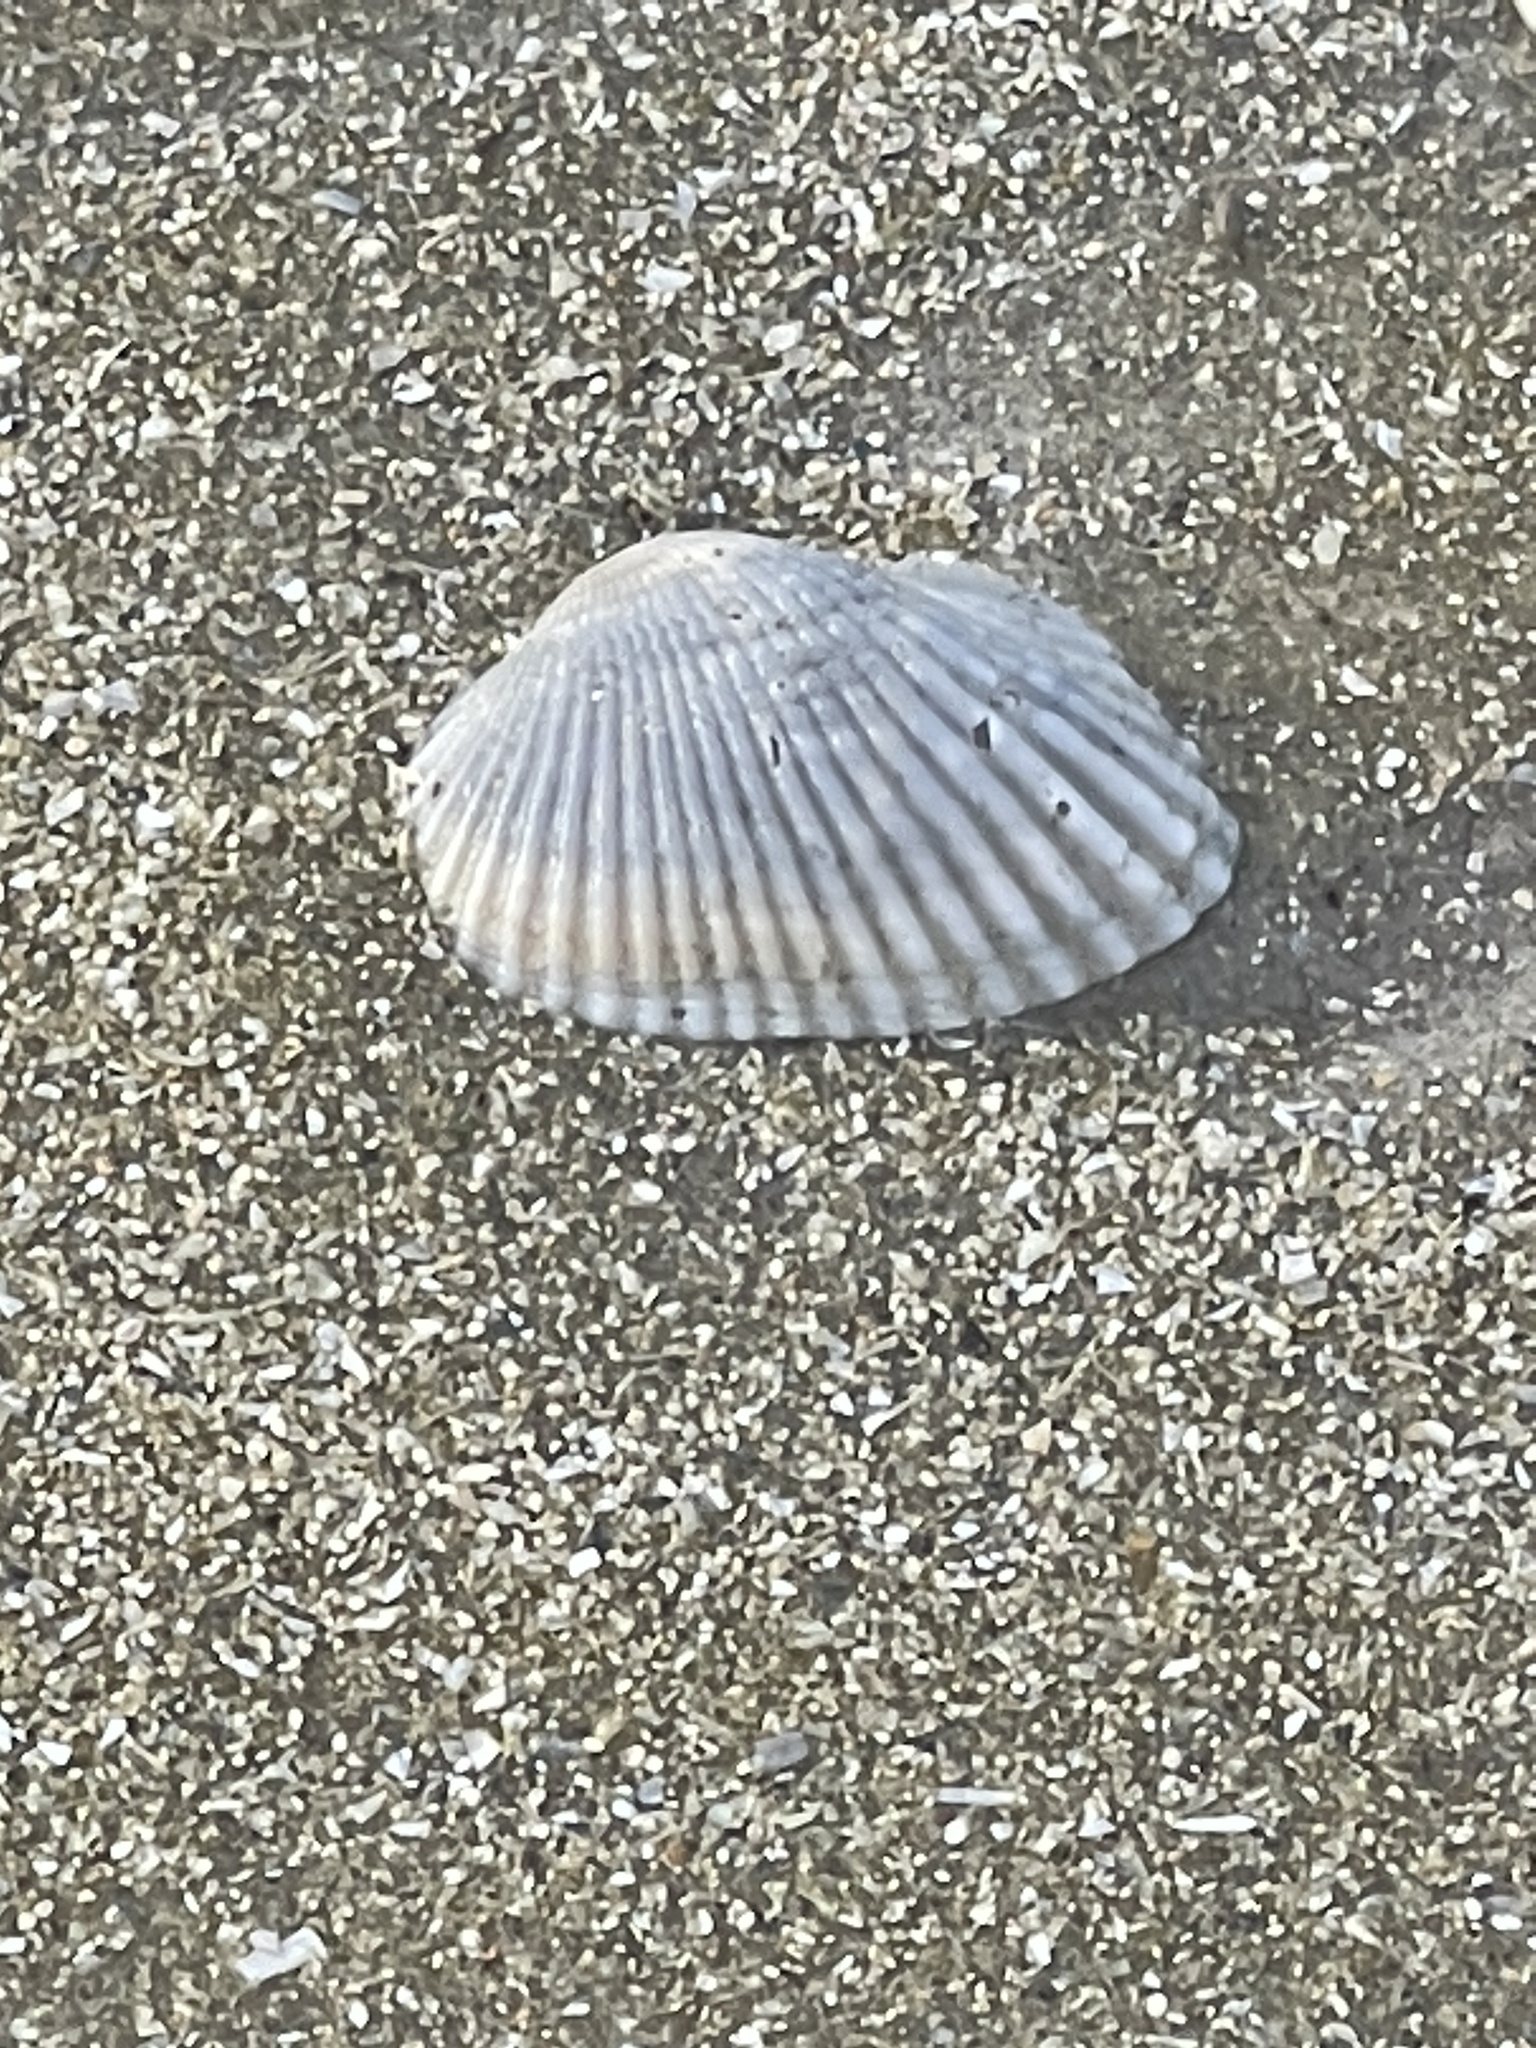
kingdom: Animalia
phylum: Mollusca
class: Bivalvia
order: Arcida
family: Arcidae
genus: Anadara
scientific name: Anadara transversa
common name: Transverse ark
